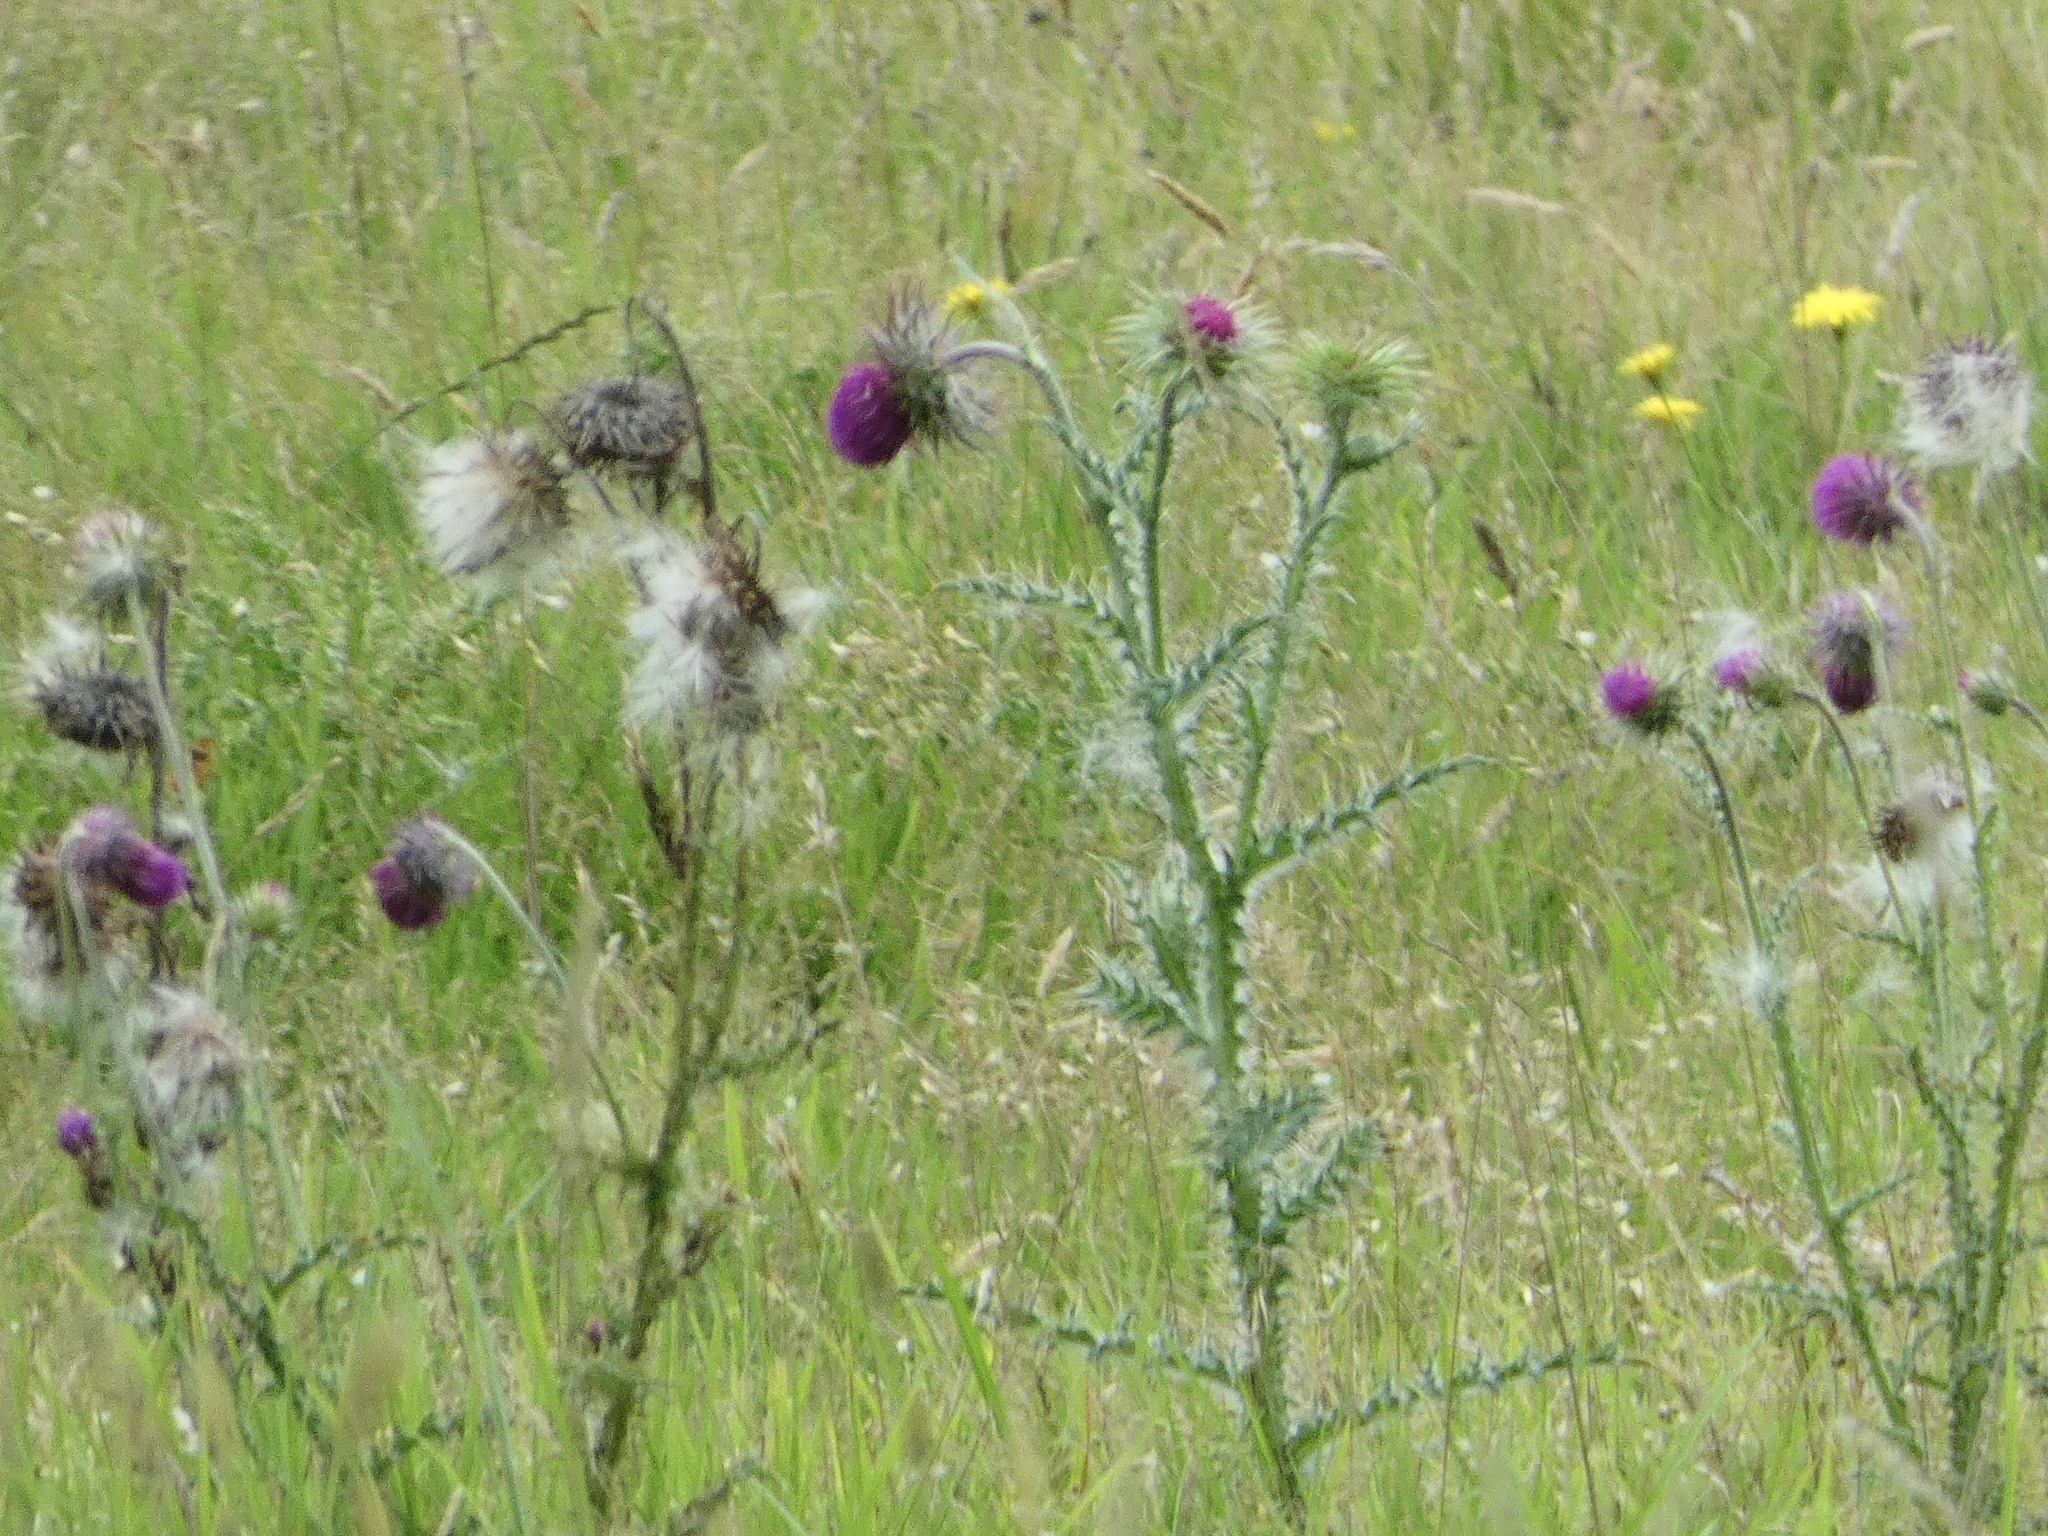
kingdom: Plantae
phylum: Tracheophyta
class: Magnoliopsida
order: Asterales
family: Asteraceae
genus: Carduus
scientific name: Carduus nutans
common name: Musk thistle
